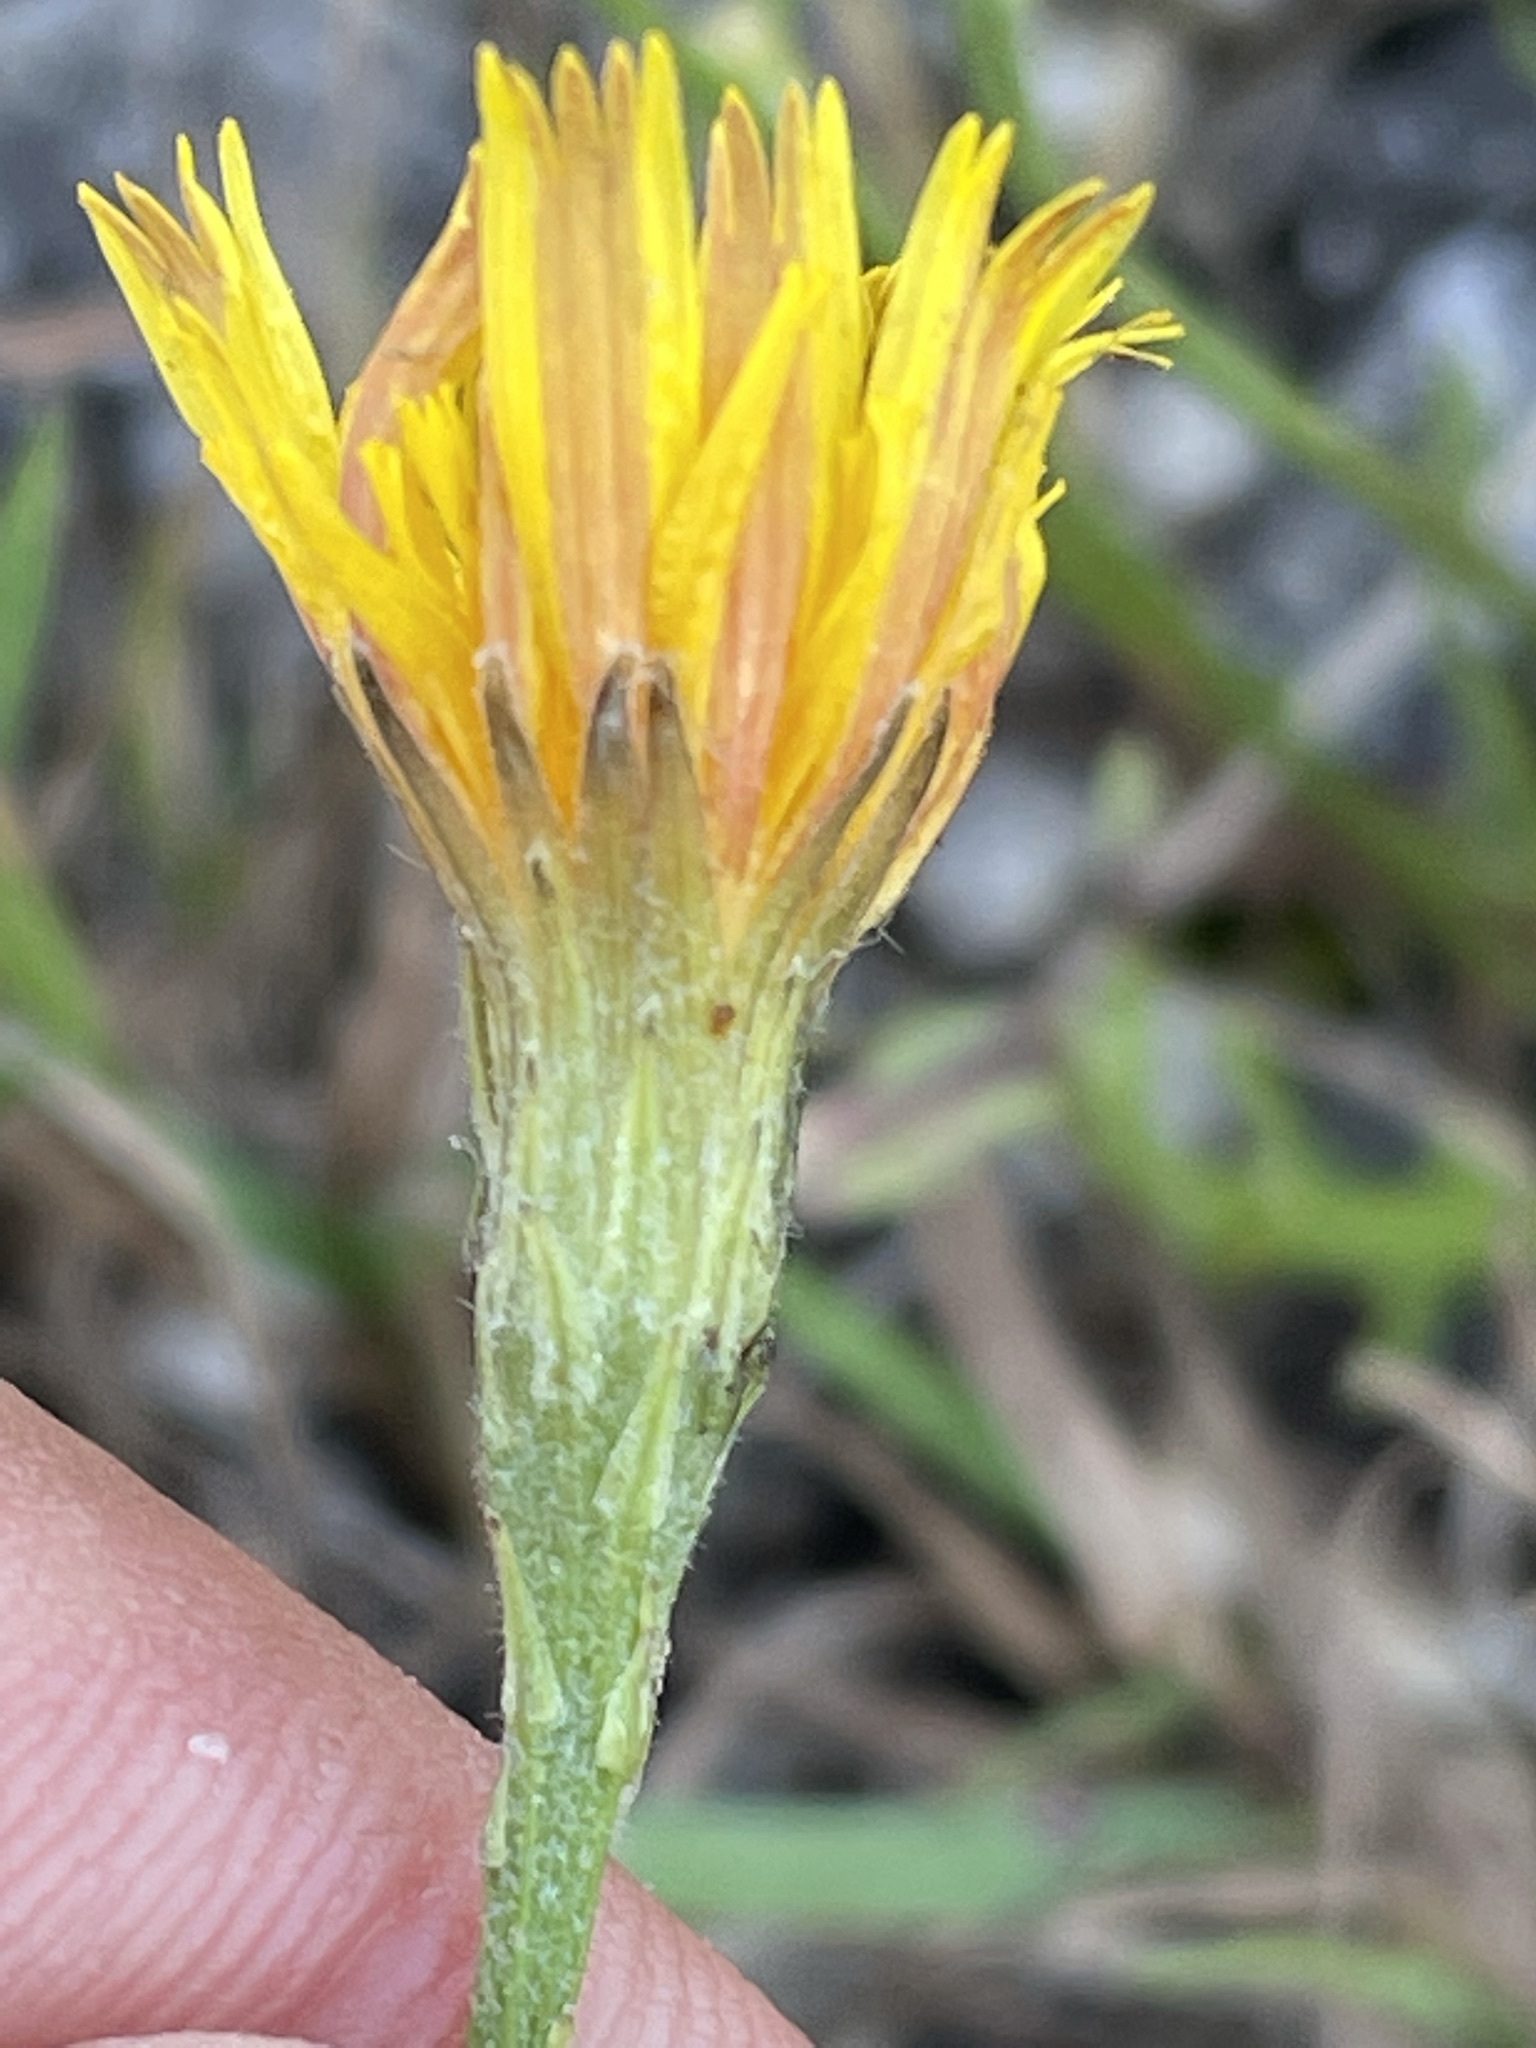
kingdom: Plantae
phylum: Tracheophyta
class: Magnoliopsida
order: Asterales
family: Asteraceae
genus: Scorzoneroides
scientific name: Scorzoneroides autumnalis
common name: Autumn hawkbit
